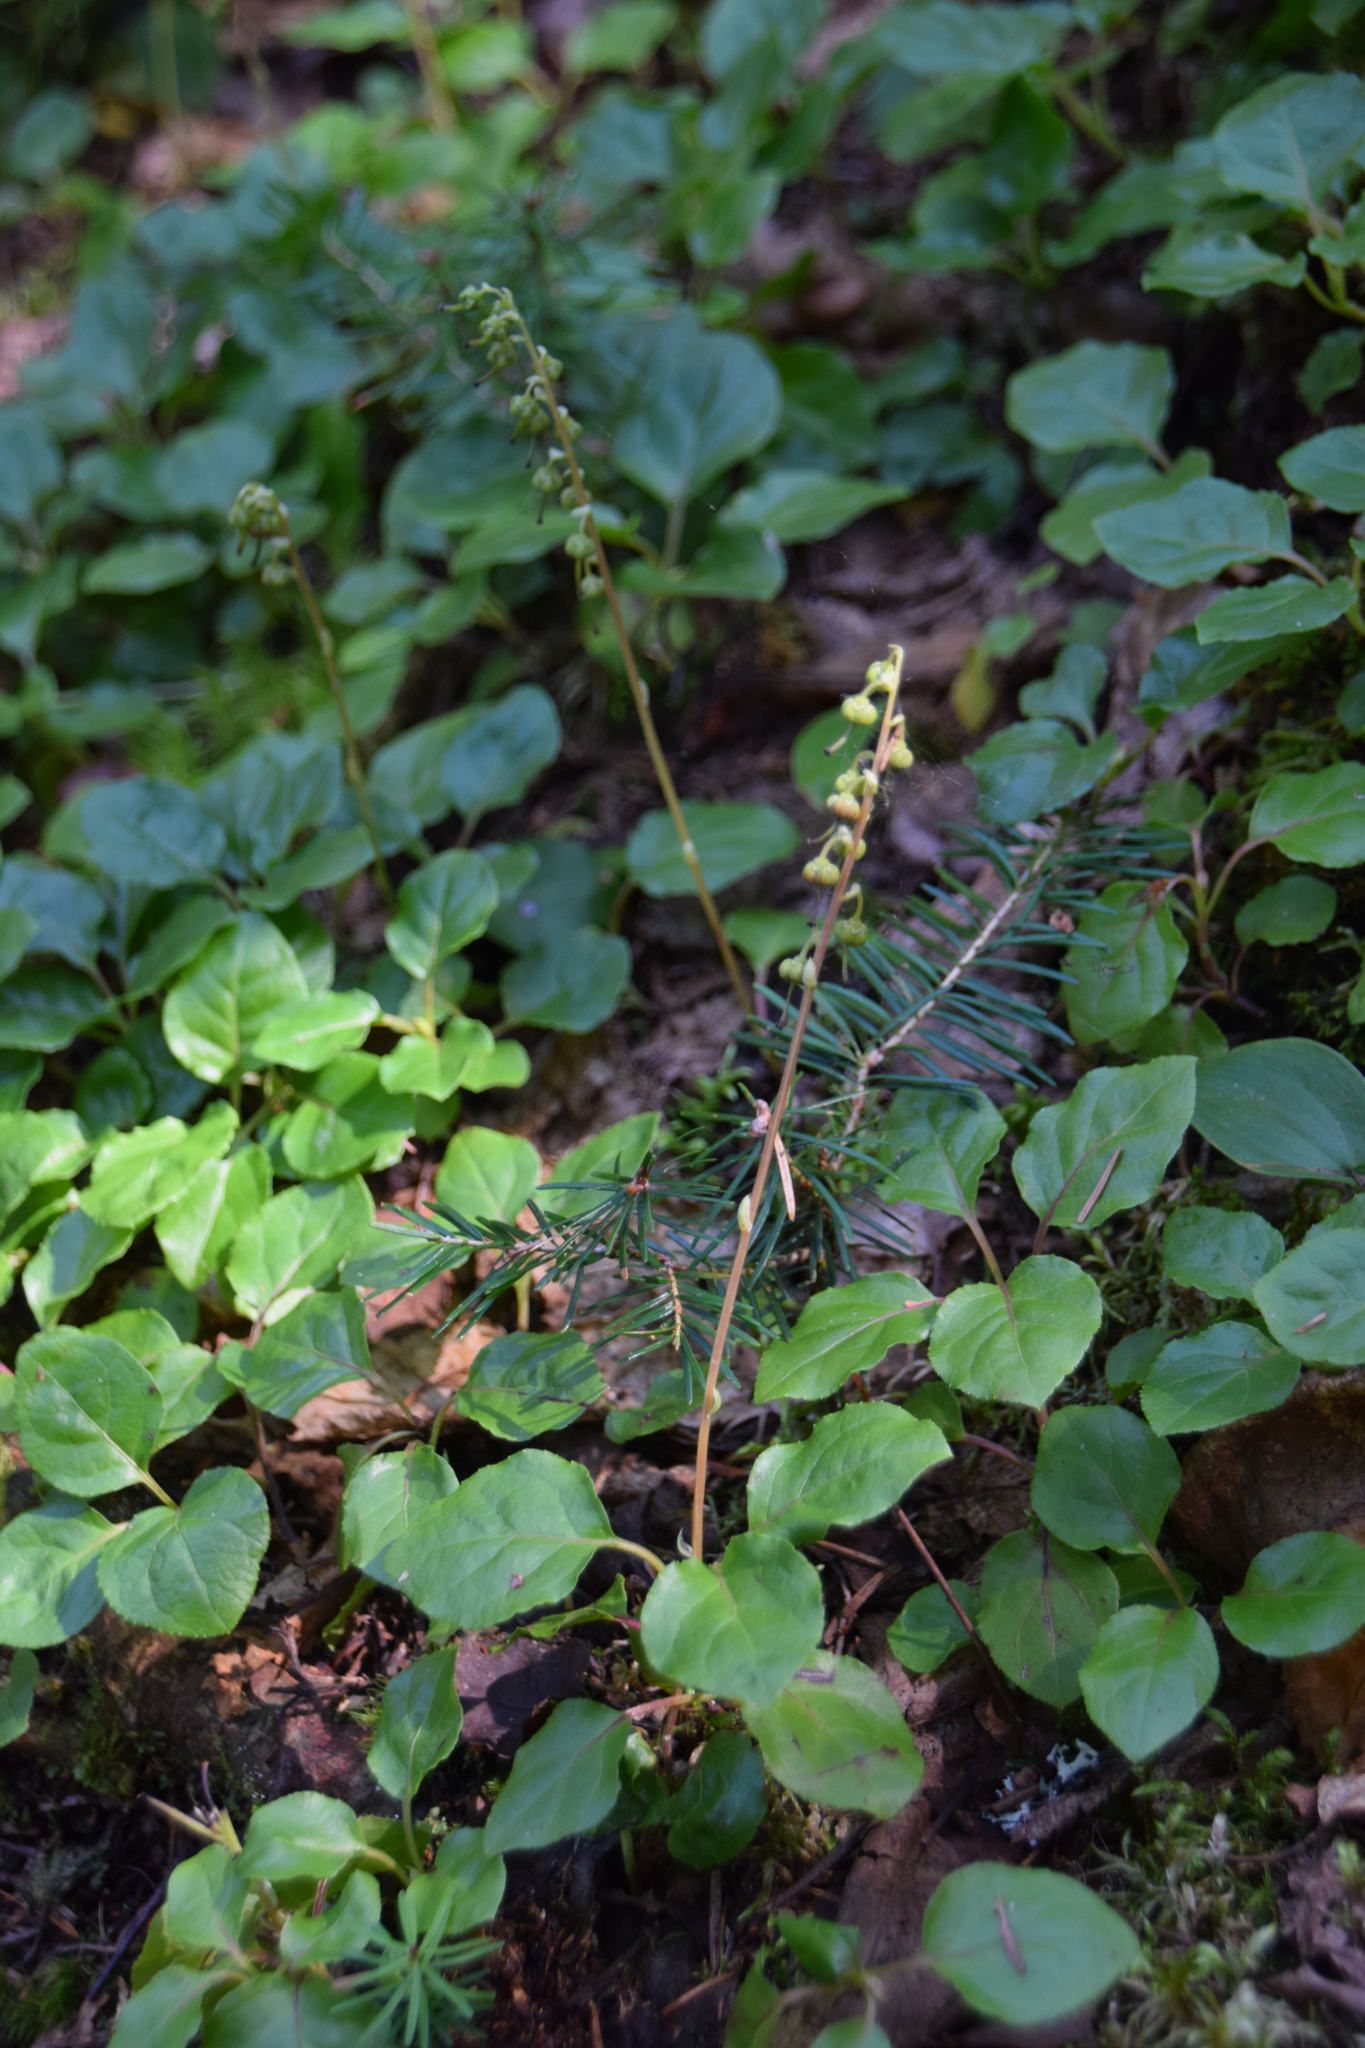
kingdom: Plantae
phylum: Tracheophyta
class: Magnoliopsida
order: Ericales
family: Ericaceae
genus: Orthilia
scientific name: Orthilia secunda
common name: One-sided orthilia
